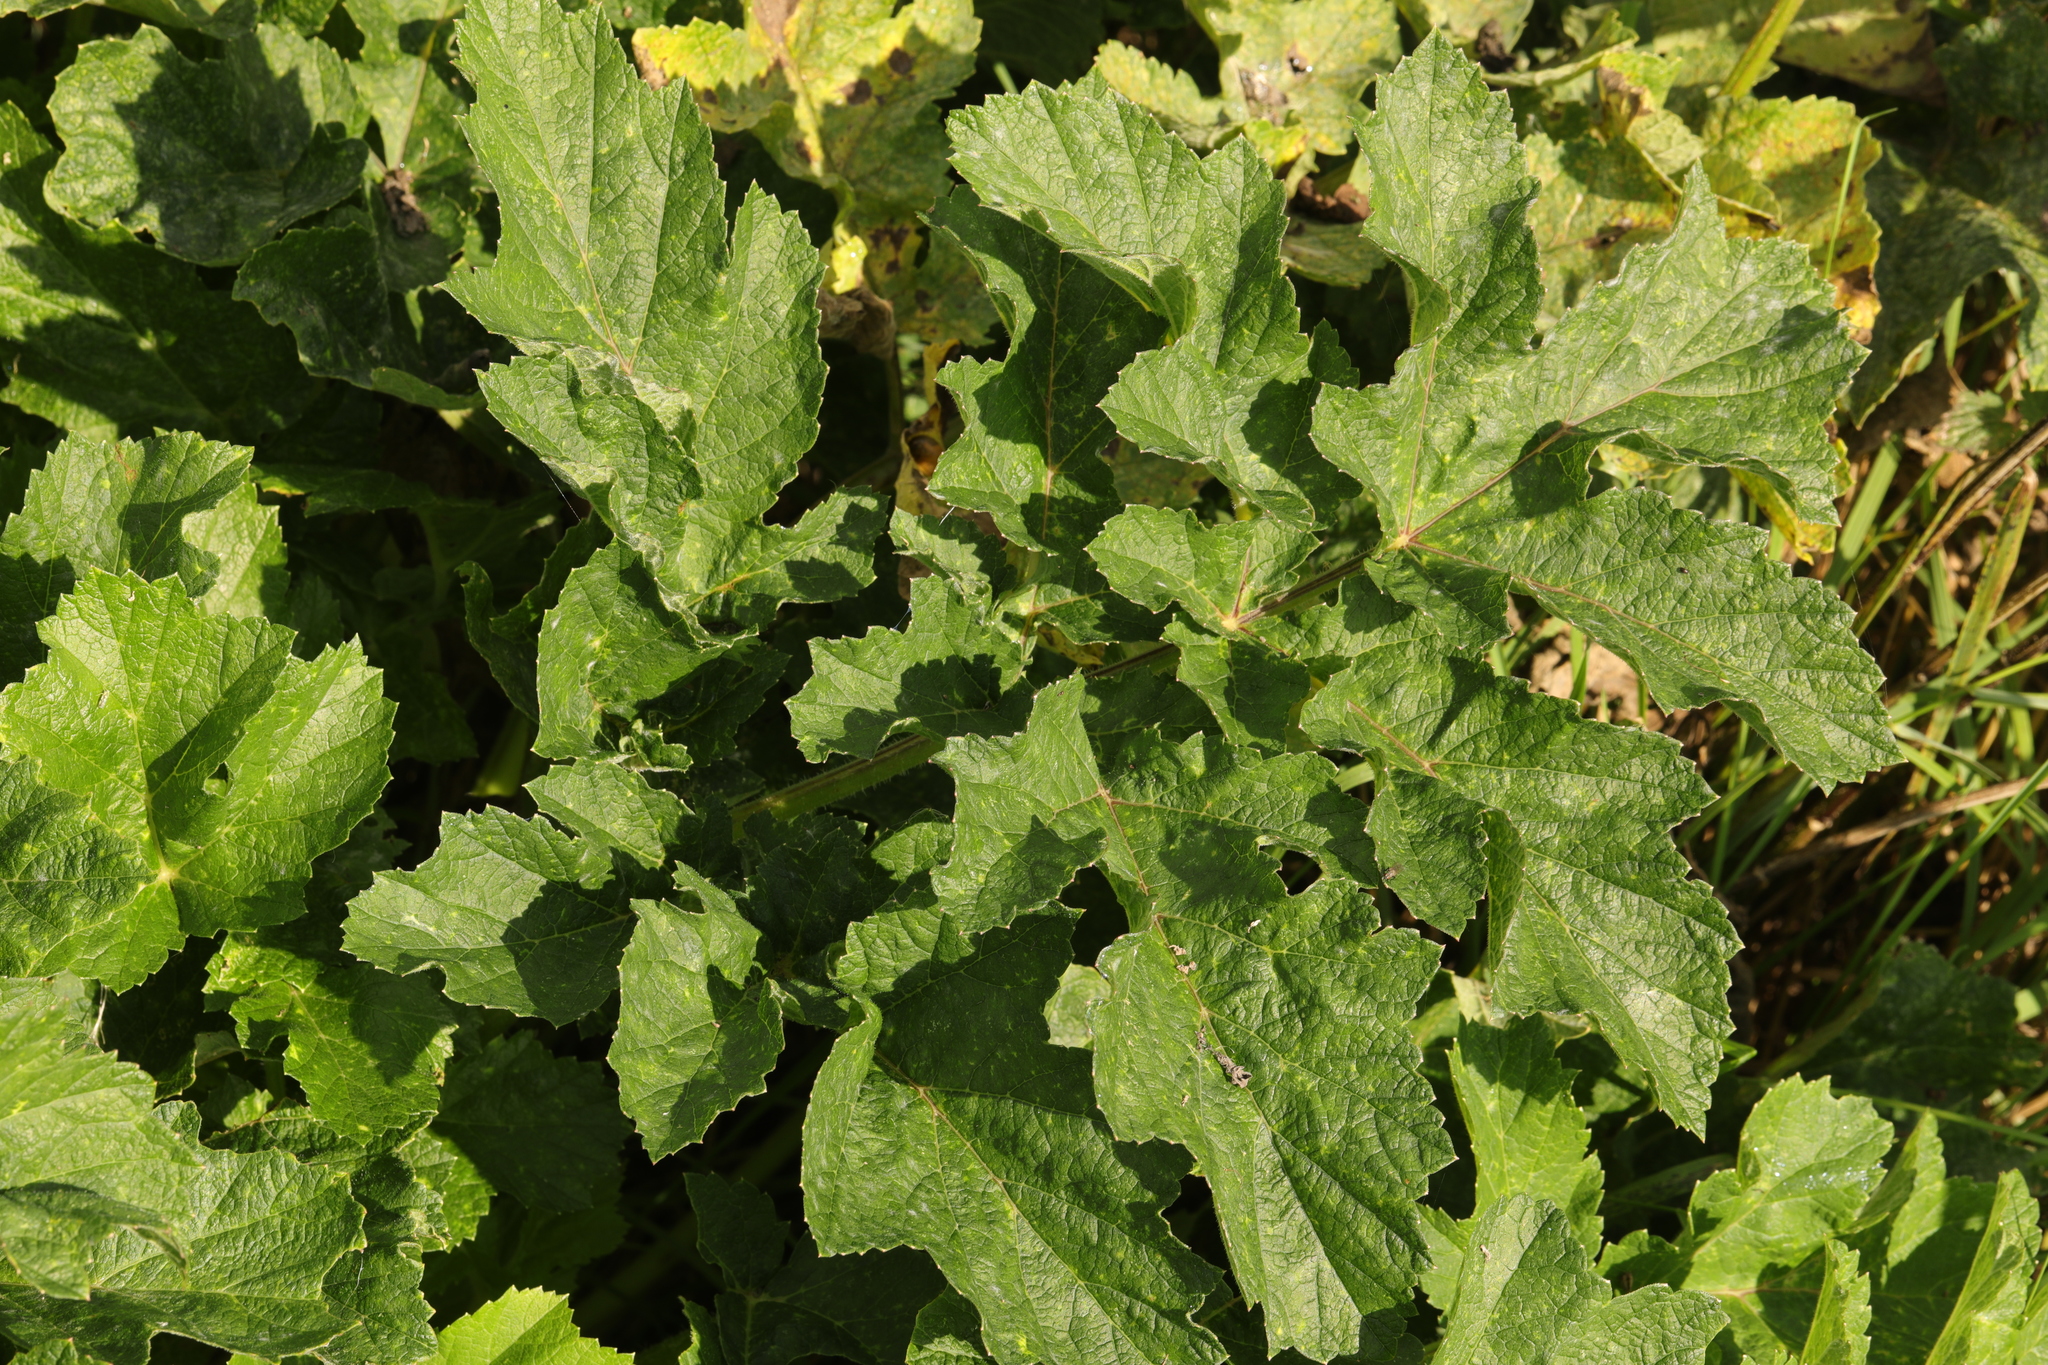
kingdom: Plantae
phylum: Tracheophyta
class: Magnoliopsida
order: Apiales
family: Apiaceae
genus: Heracleum
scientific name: Heracleum sphondylium
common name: Hogweed
